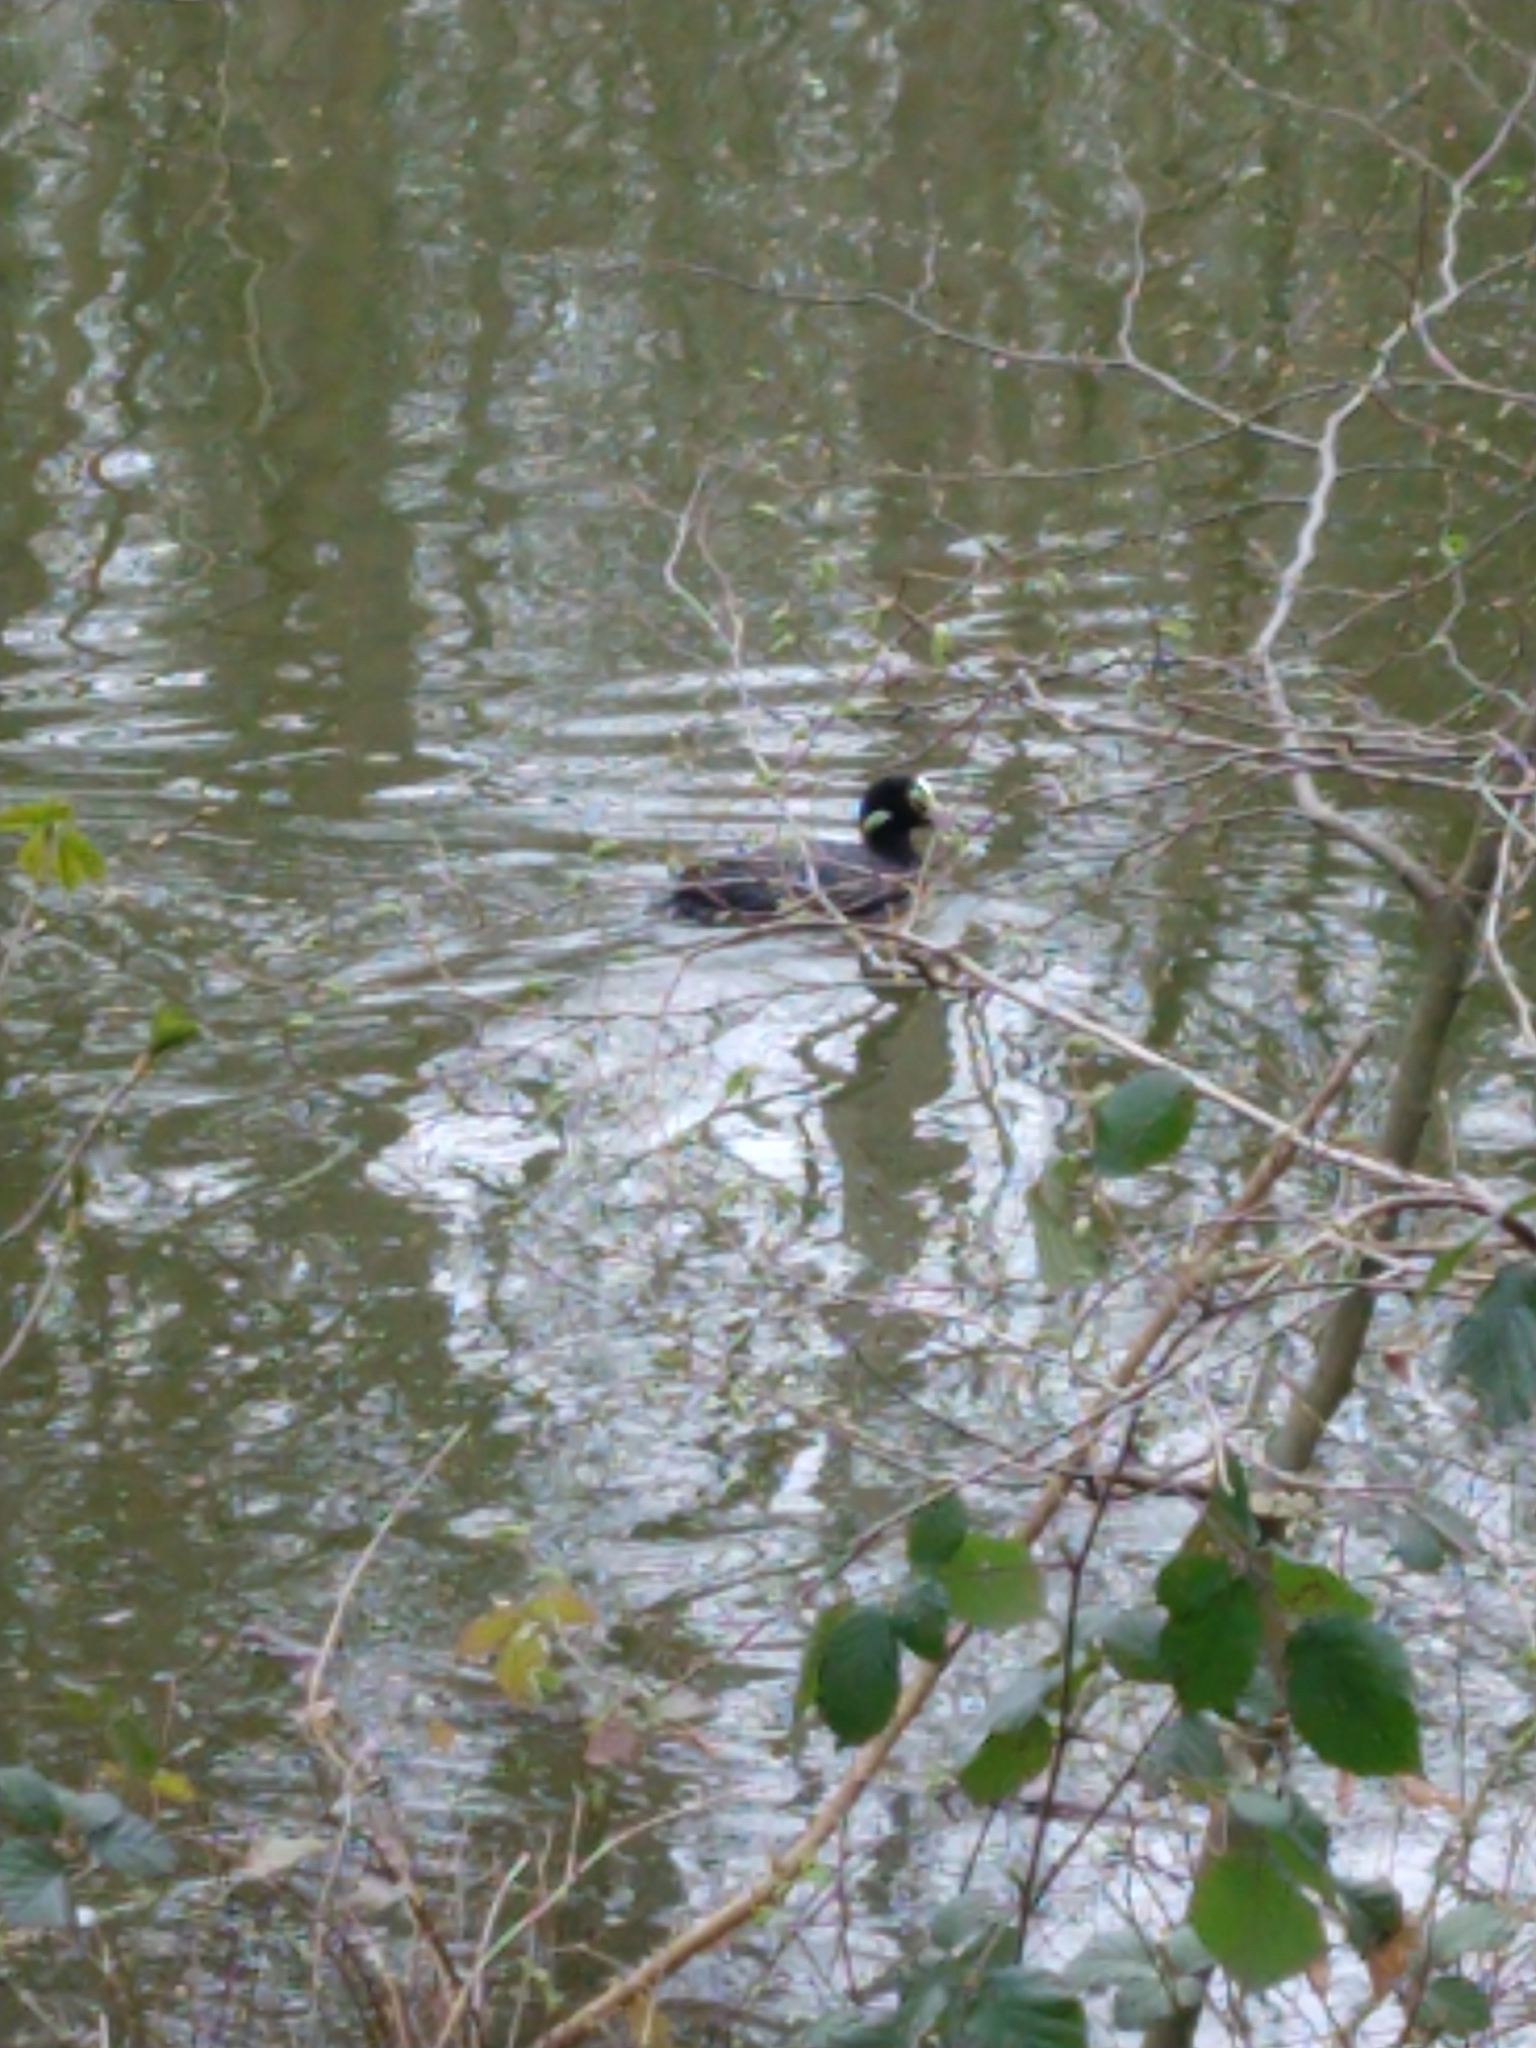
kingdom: Animalia
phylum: Chordata
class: Aves
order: Gruiformes
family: Rallidae
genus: Fulica
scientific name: Fulica atra
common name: Eurasian coot
